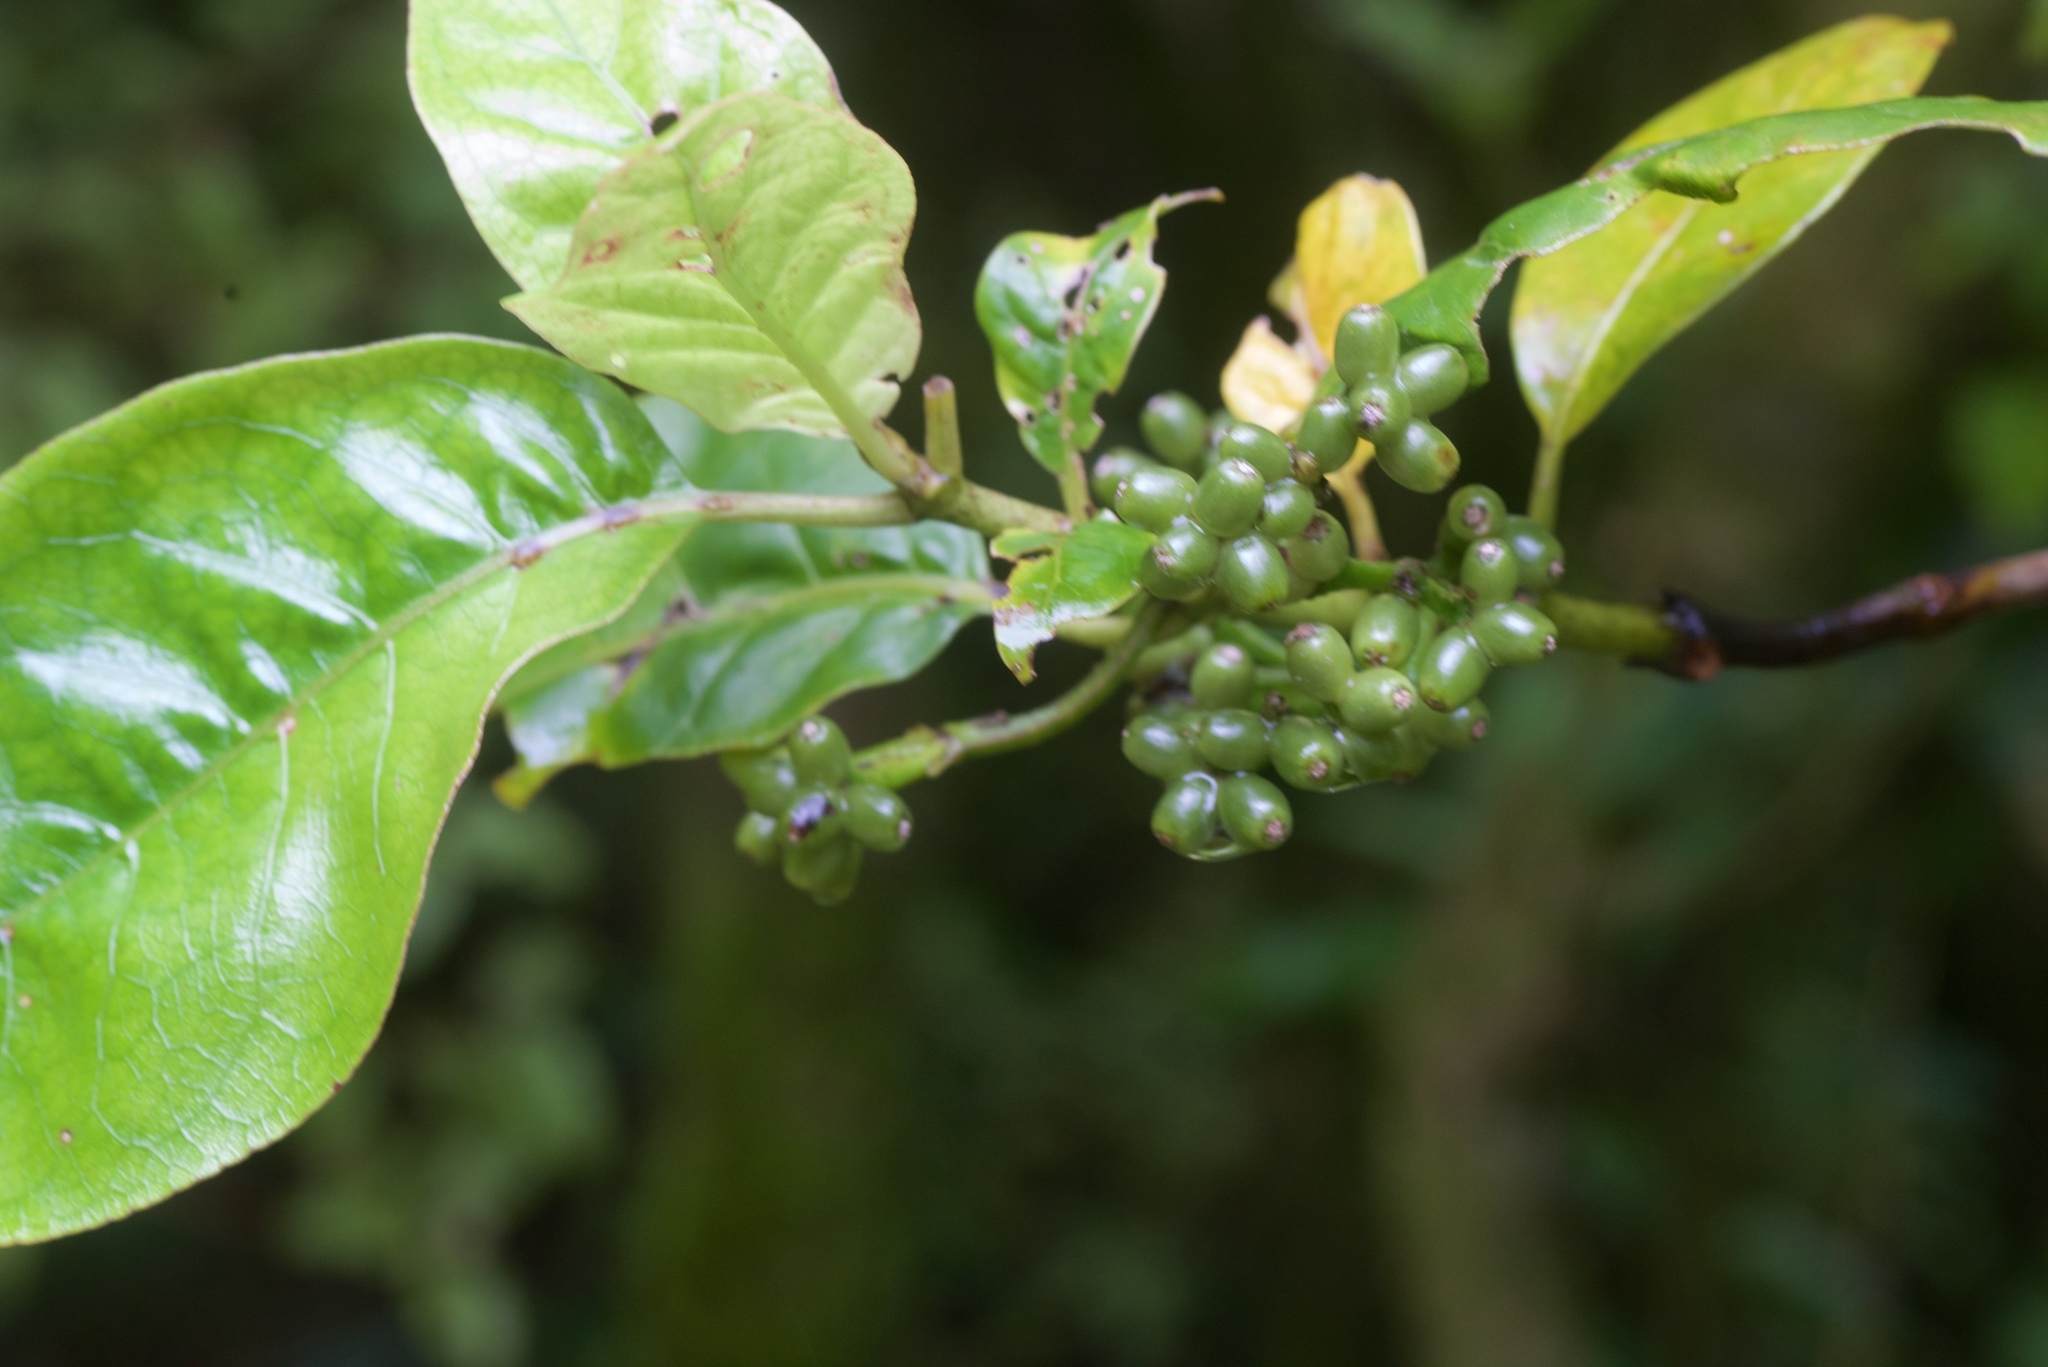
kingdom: Plantae
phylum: Tracheophyta
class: Magnoliopsida
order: Gentianales
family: Rubiaceae
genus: Coprosma
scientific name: Coprosma autumnalis
